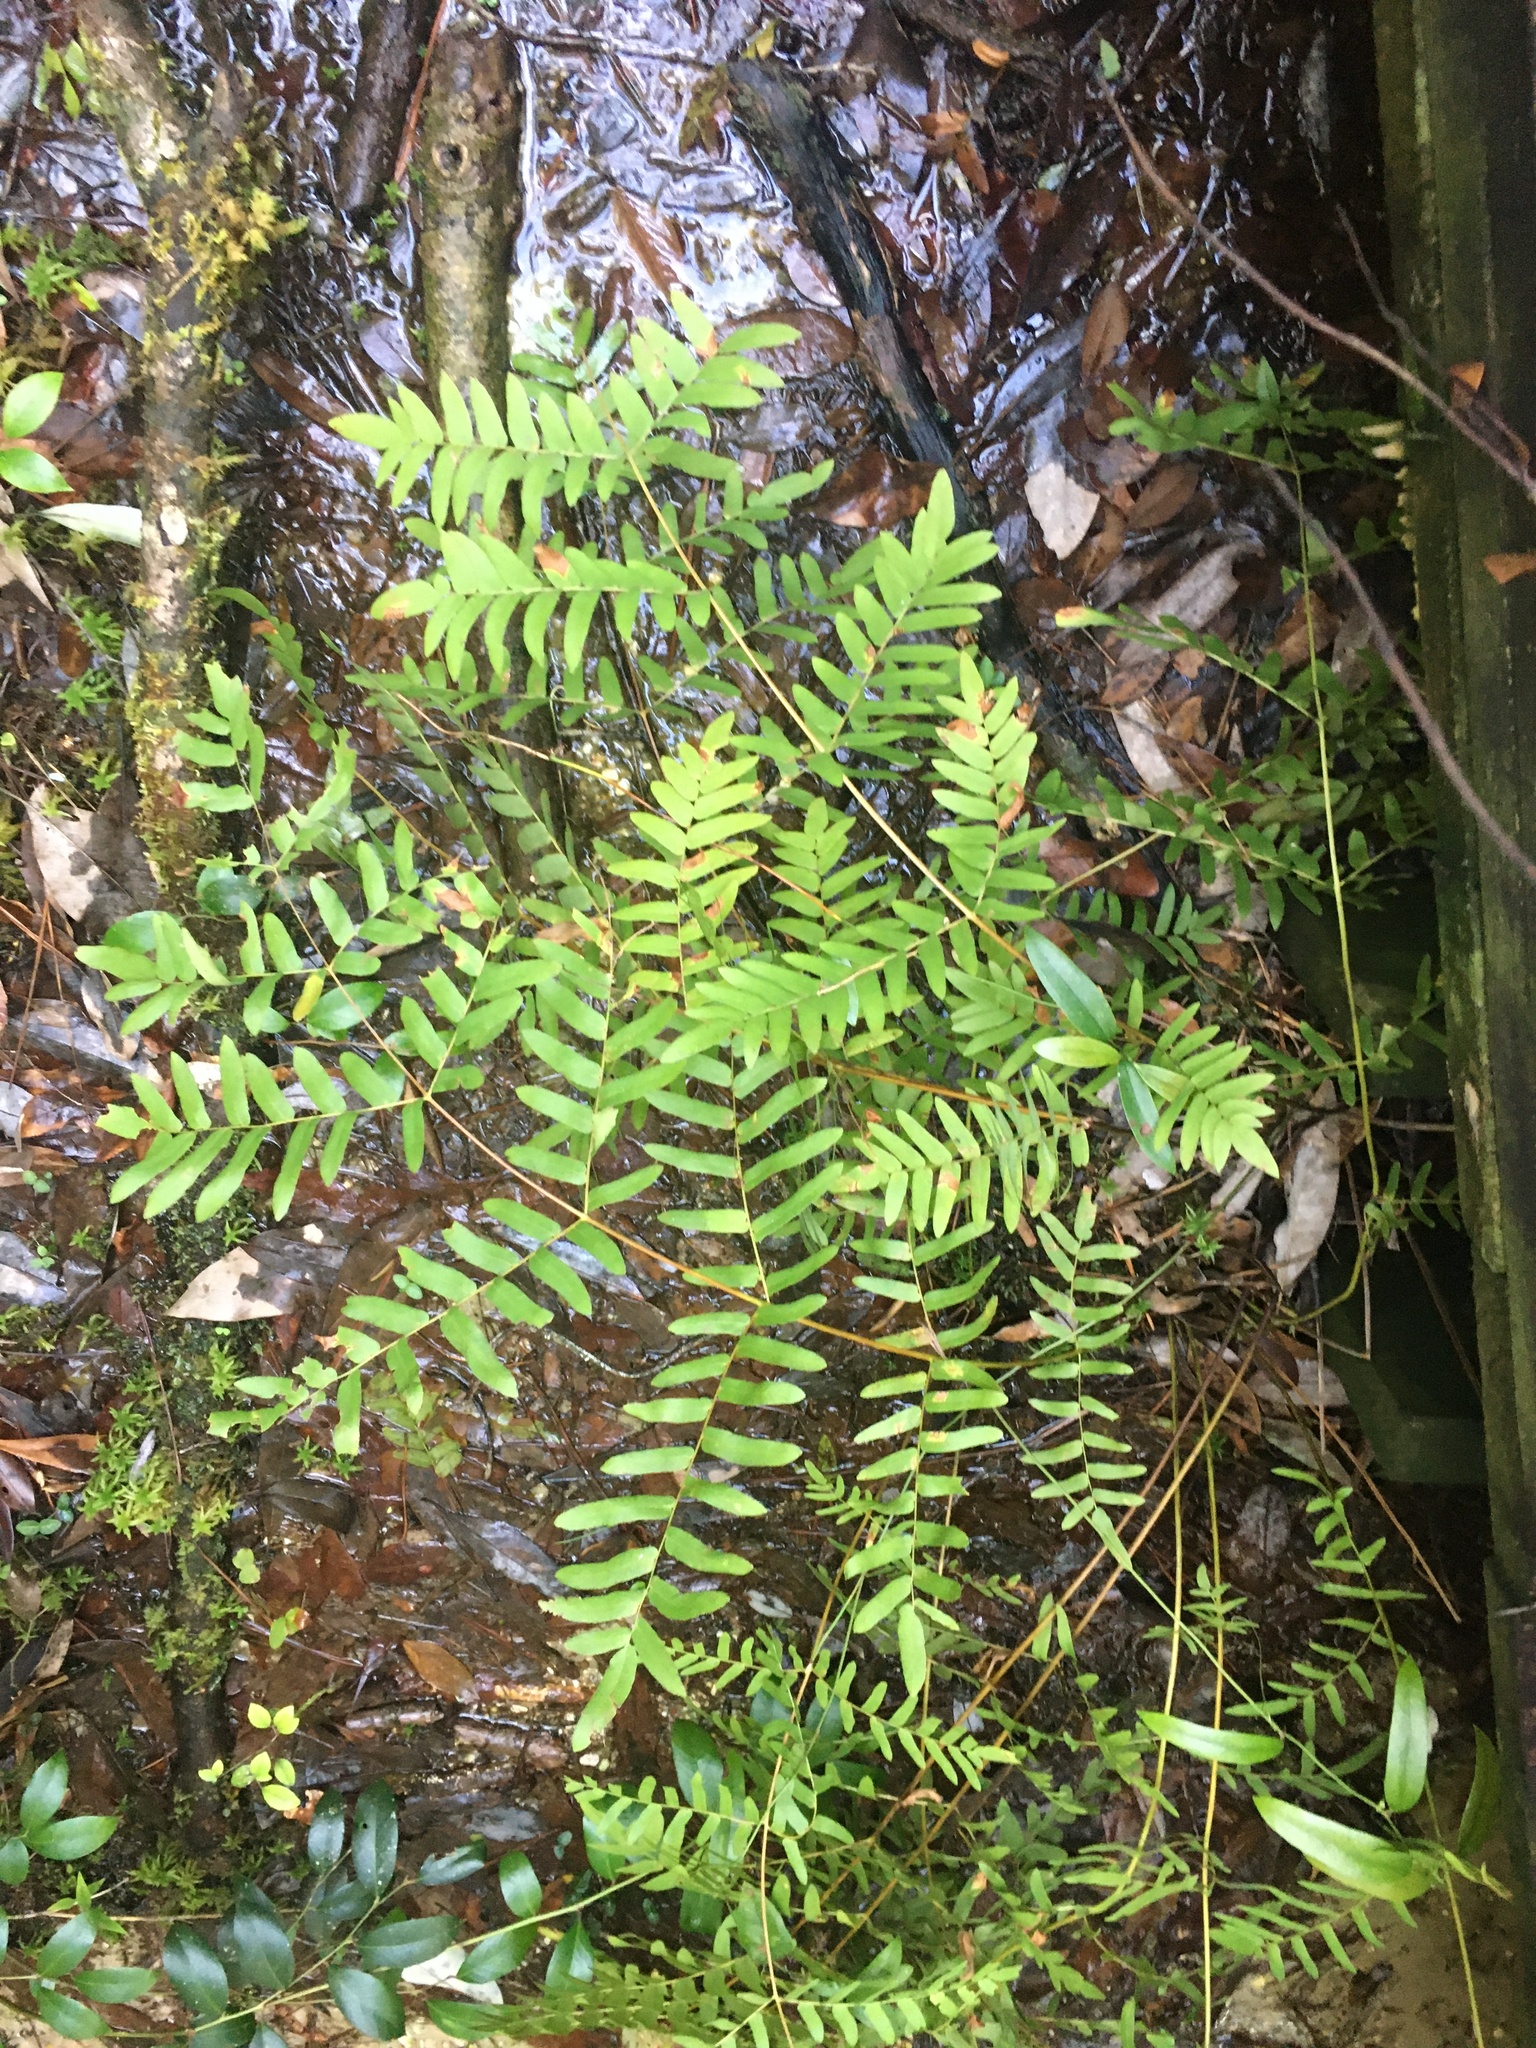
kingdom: Plantae
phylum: Tracheophyta
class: Polypodiopsida
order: Osmundales
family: Osmundaceae
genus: Osmunda
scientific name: Osmunda spectabilis
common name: American royal fern
